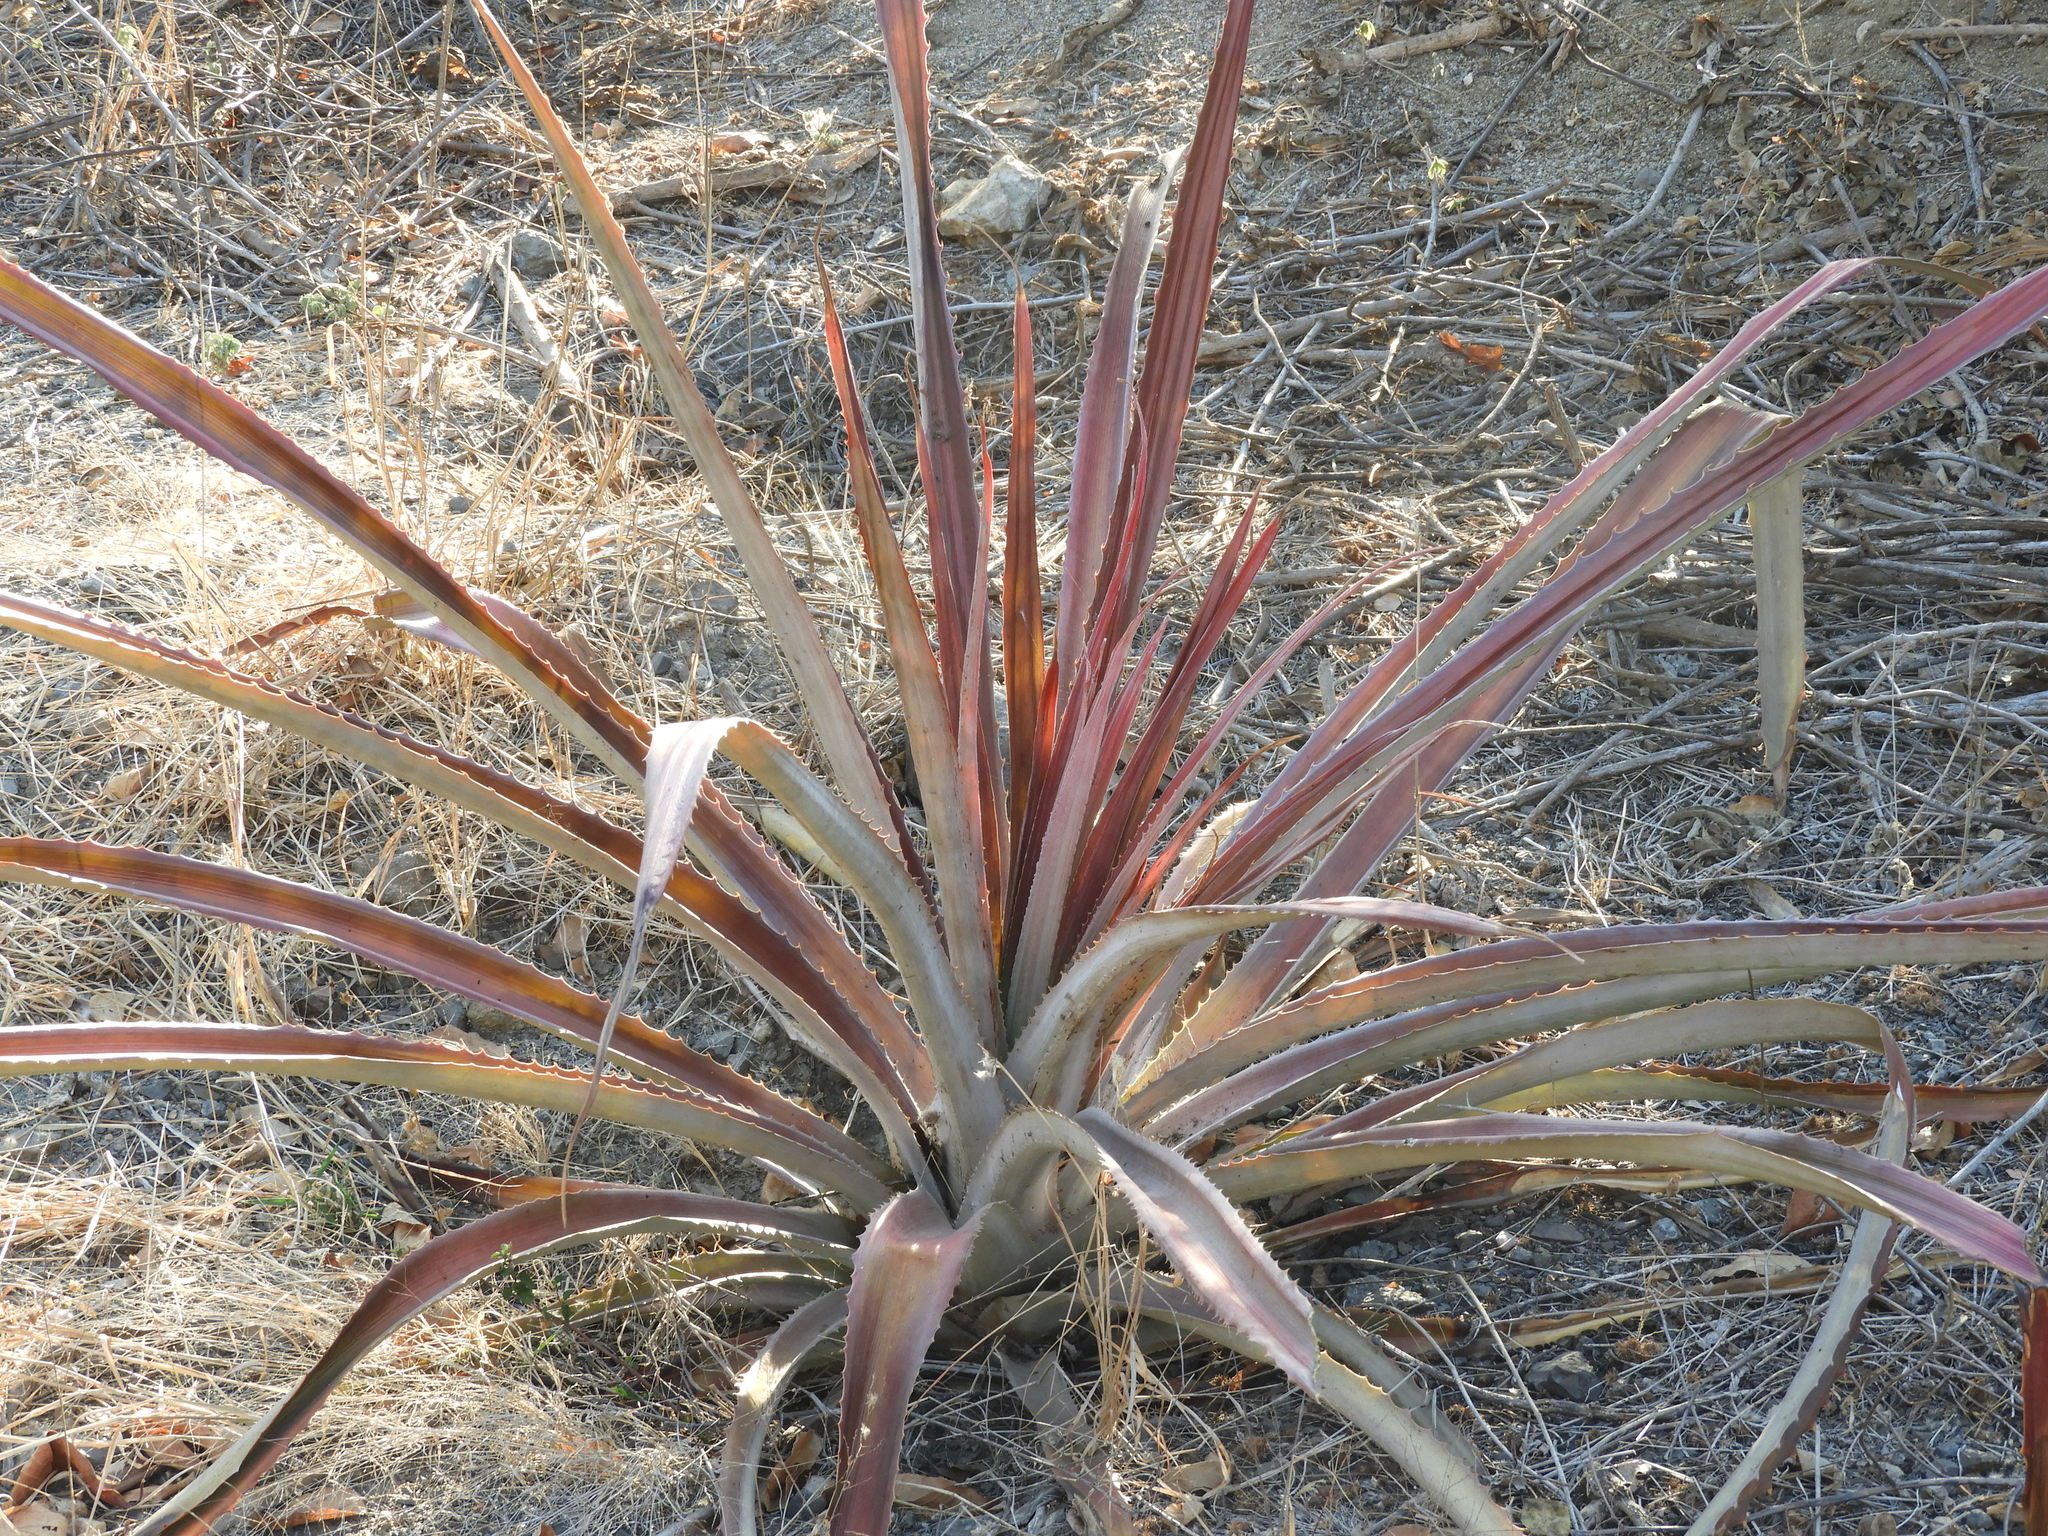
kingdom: Plantae
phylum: Tracheophyta
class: Liliopsida
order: Poales
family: Bromeliaceae
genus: Bromelia
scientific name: Bromelia hemisphaerica
